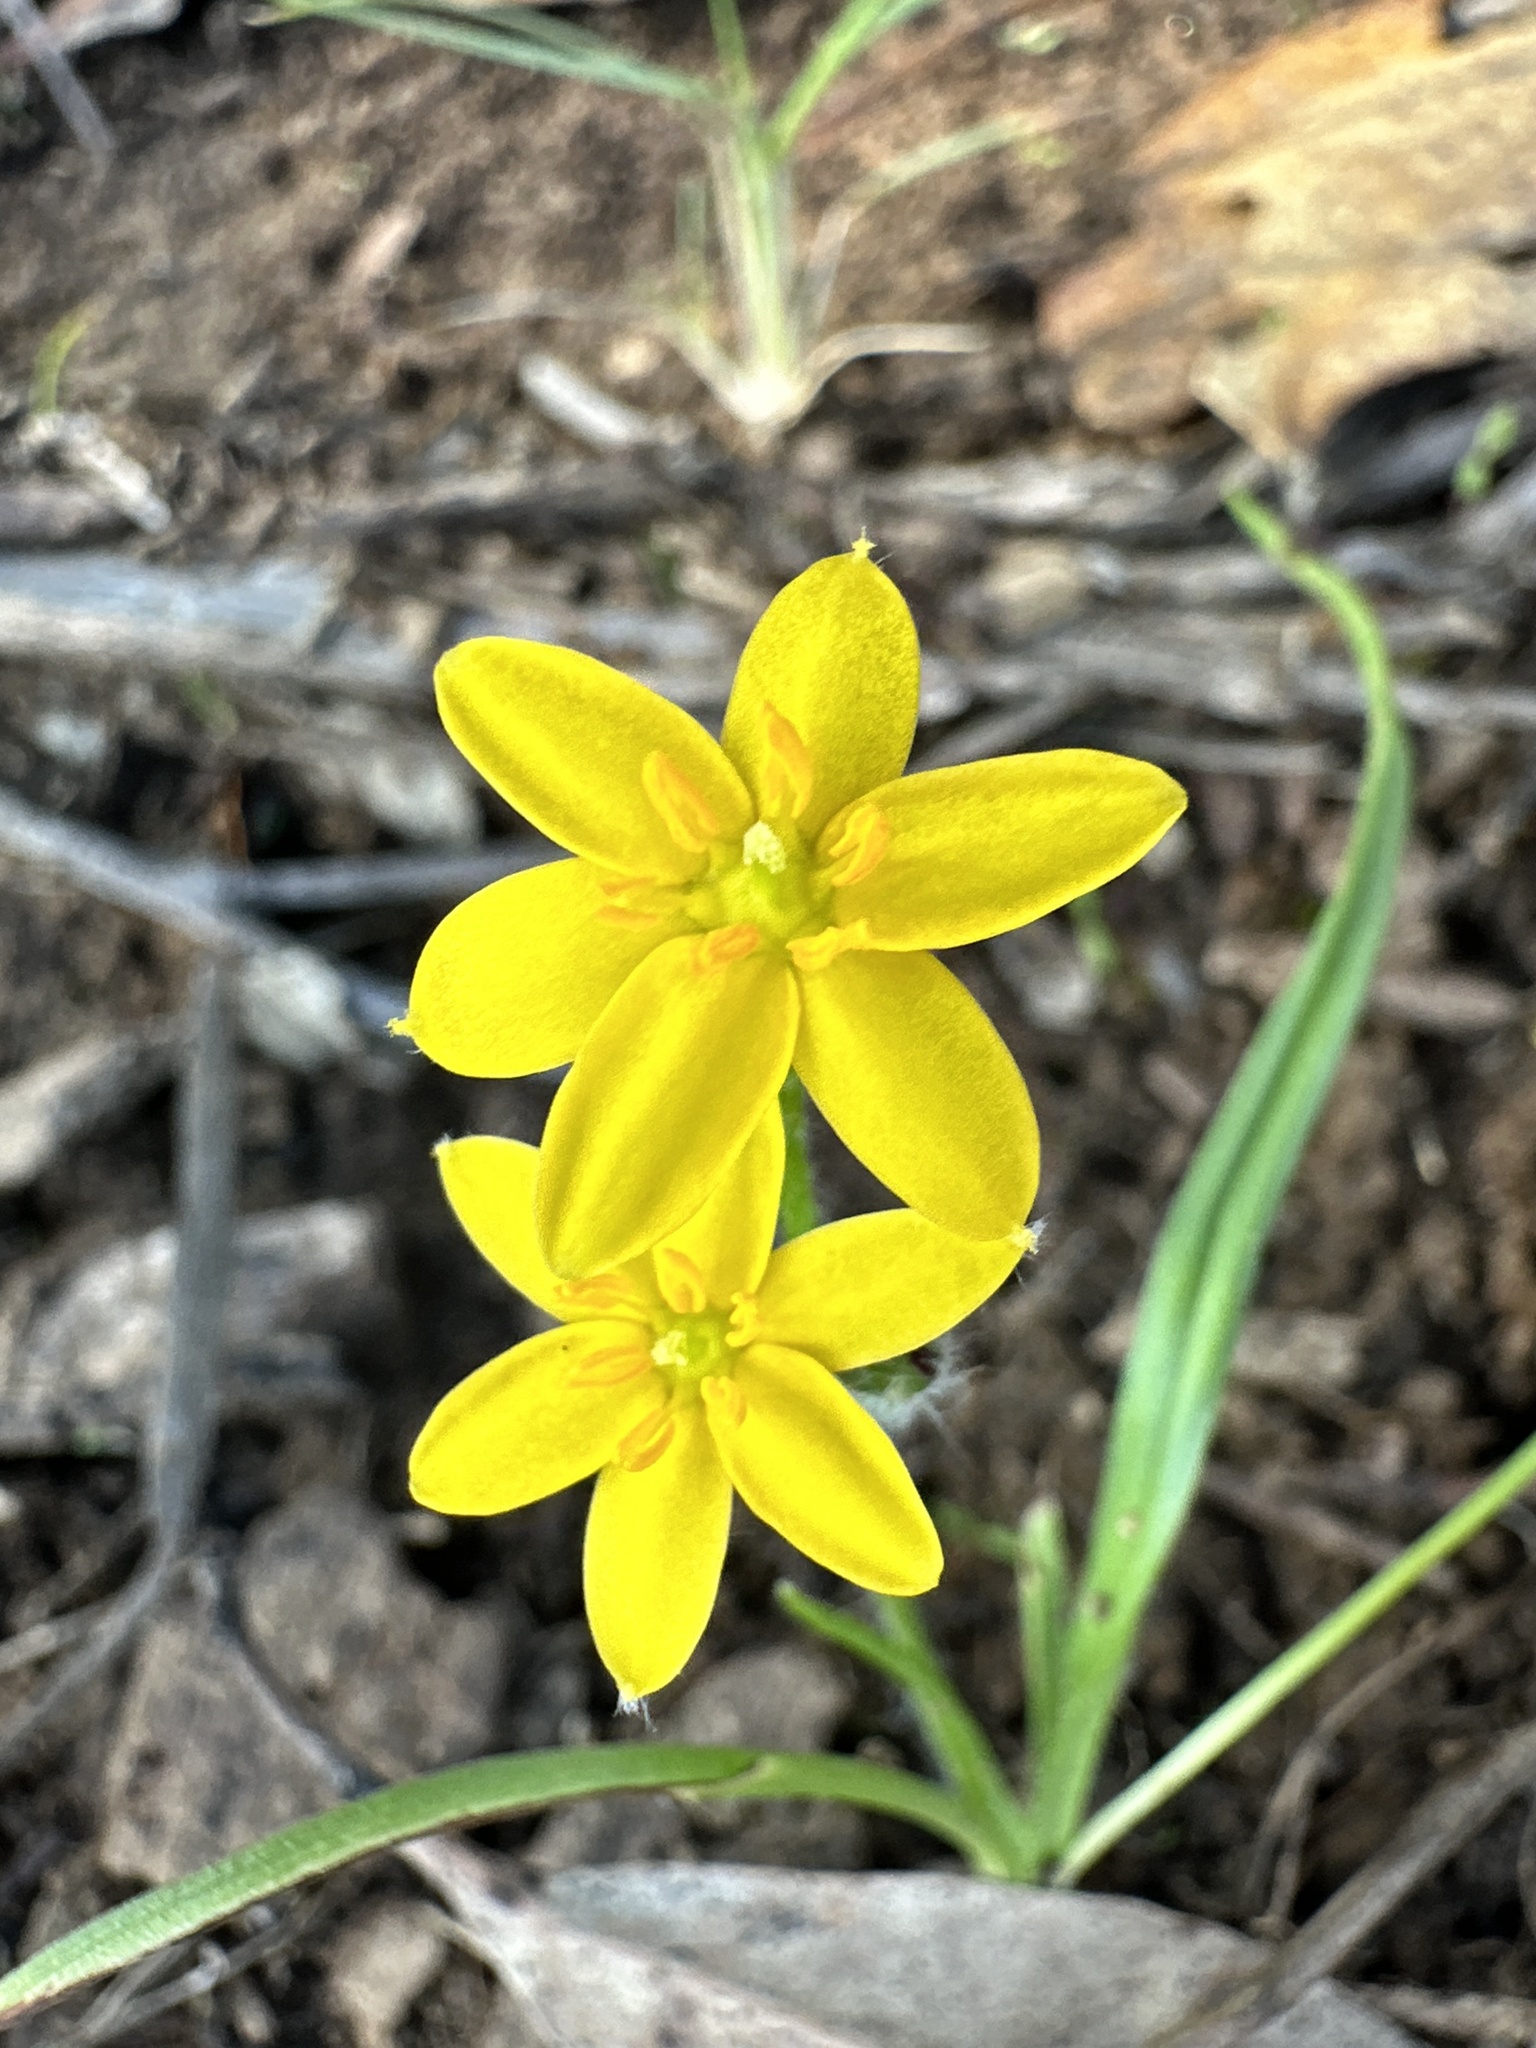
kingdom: Plantae
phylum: Tracheophyta
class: Liliopsida
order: Asparagales
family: Hypoxidaceae
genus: Hypoxis
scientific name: Hypoxis hygrometrica
